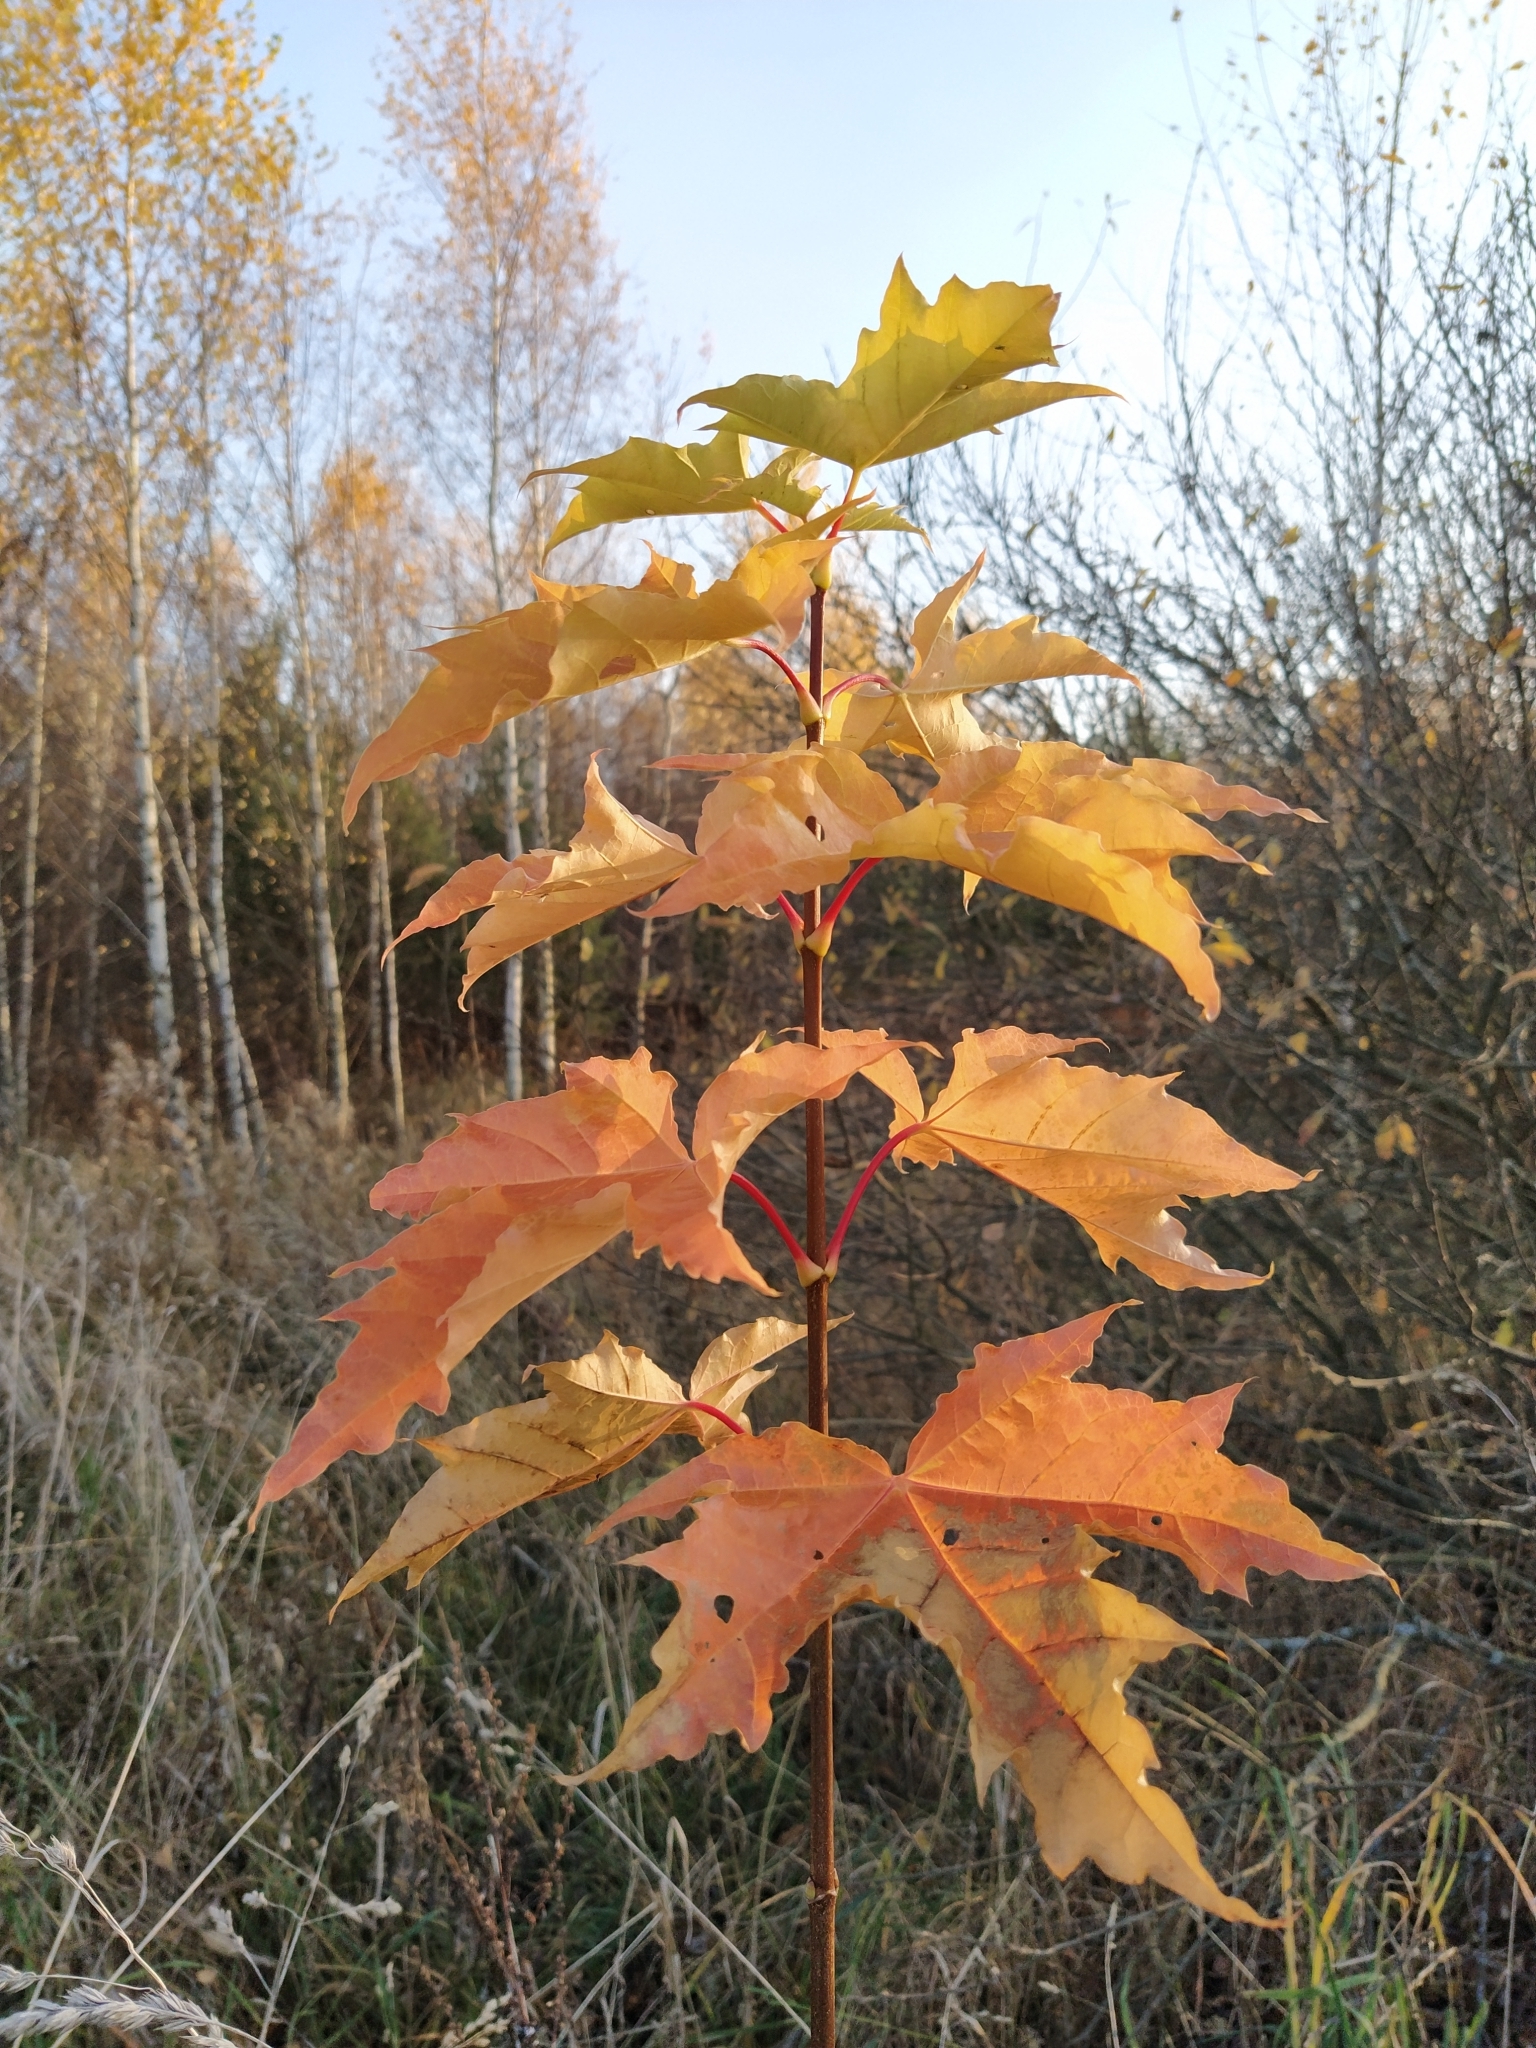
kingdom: Plantae
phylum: Tracheophyta
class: Magnoliopsida
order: Sapindales
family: Sapindaceae
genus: Acer
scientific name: Acer platanoides
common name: Norway maple
